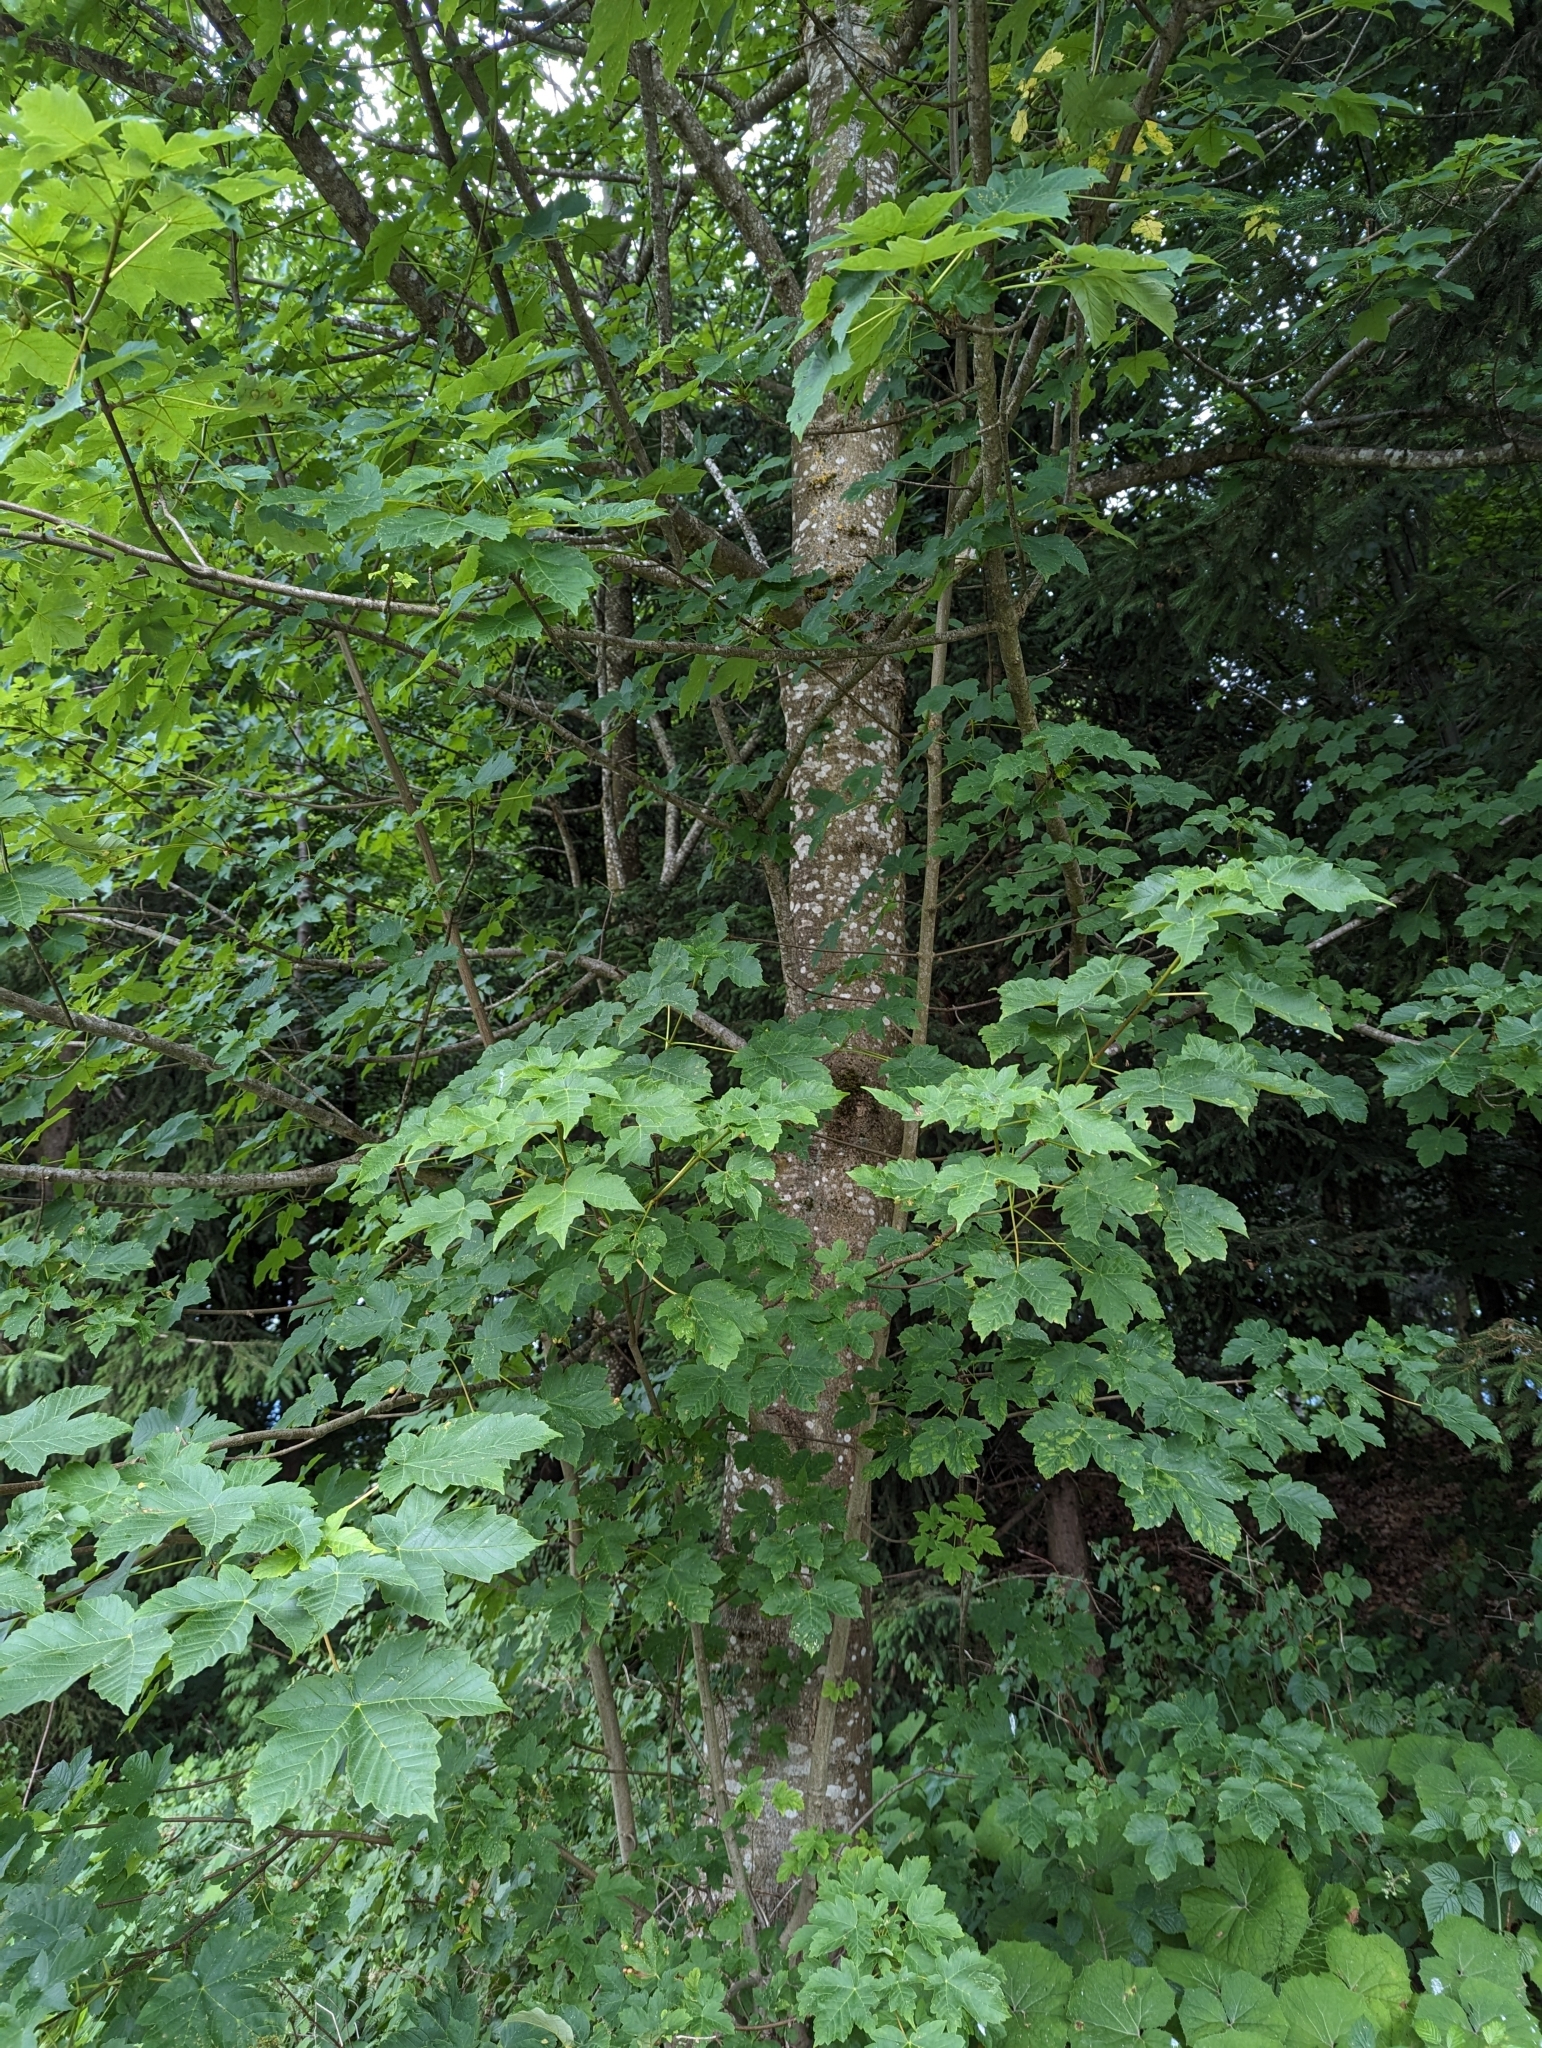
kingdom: Plantae
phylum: Tracheophyta
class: Magnoliopsida
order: Sapindales
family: Sapindaceae
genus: Acer
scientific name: Acer pseudoplatanus
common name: Sycamore
